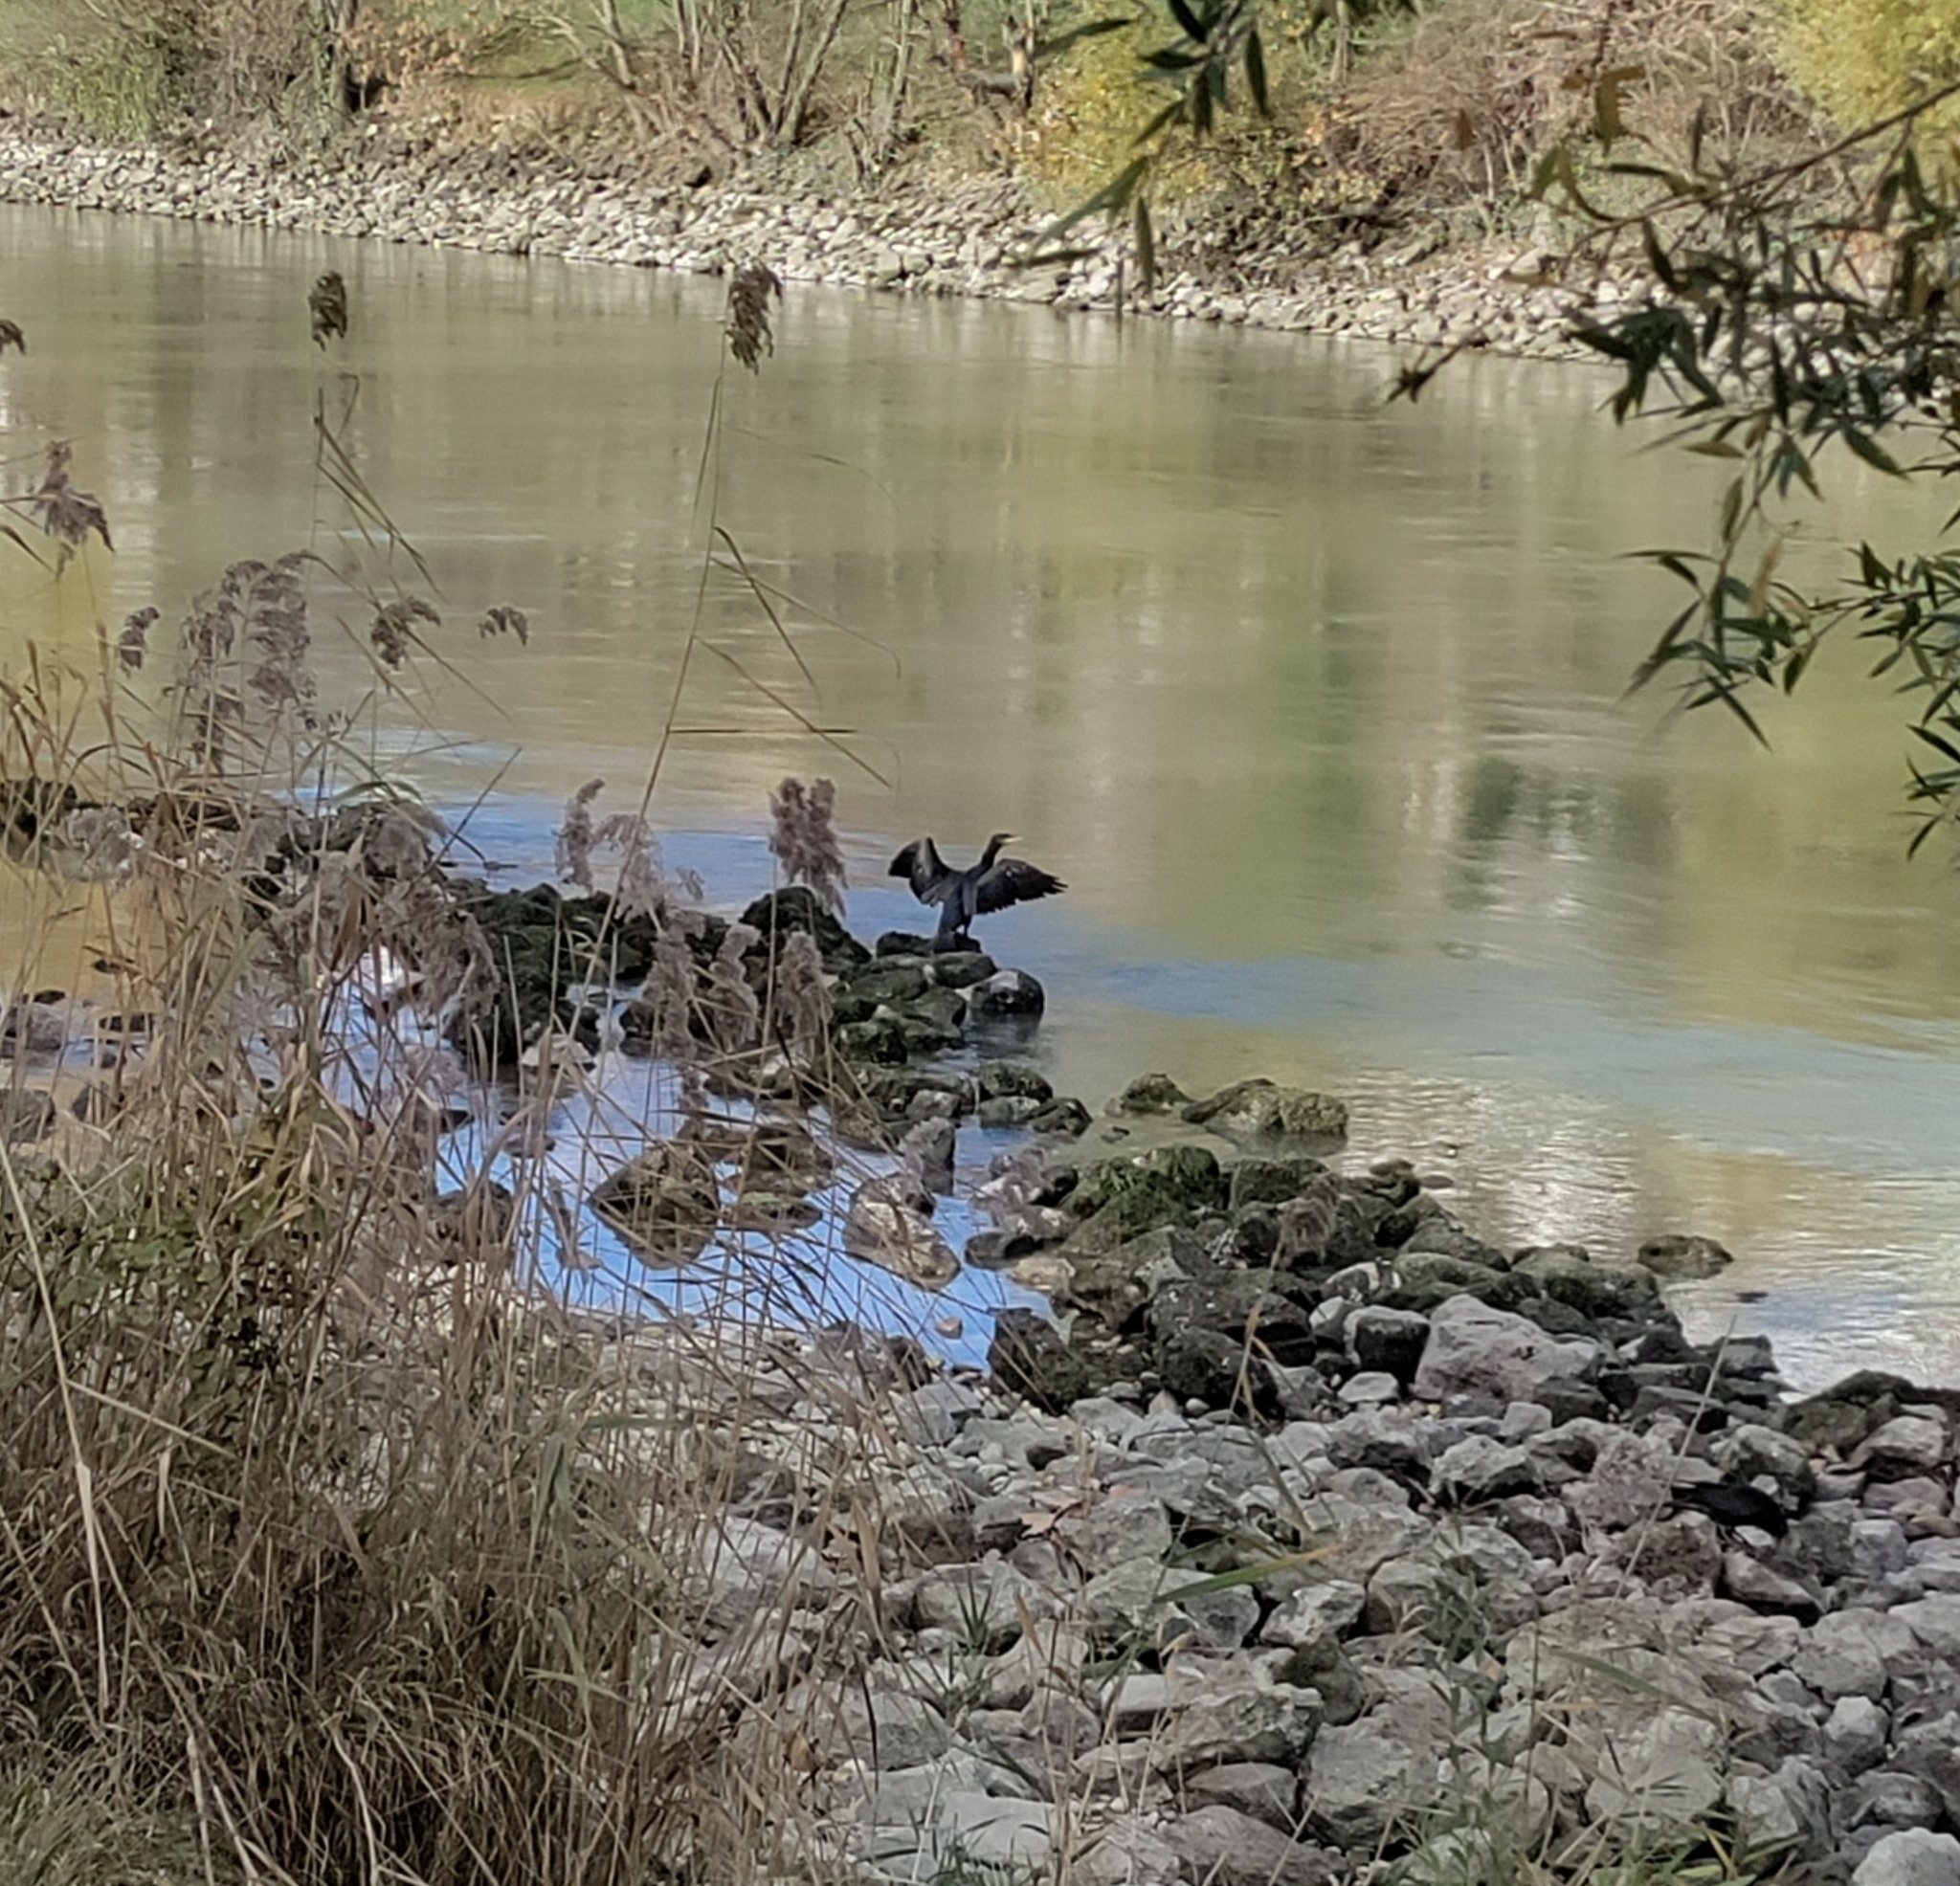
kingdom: Animalia
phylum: Chordata
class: Aves
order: Suliformes
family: Phalacrocoracidae
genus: Phalacrocorax
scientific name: Phalacrocorax carbo
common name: Great cormorant
